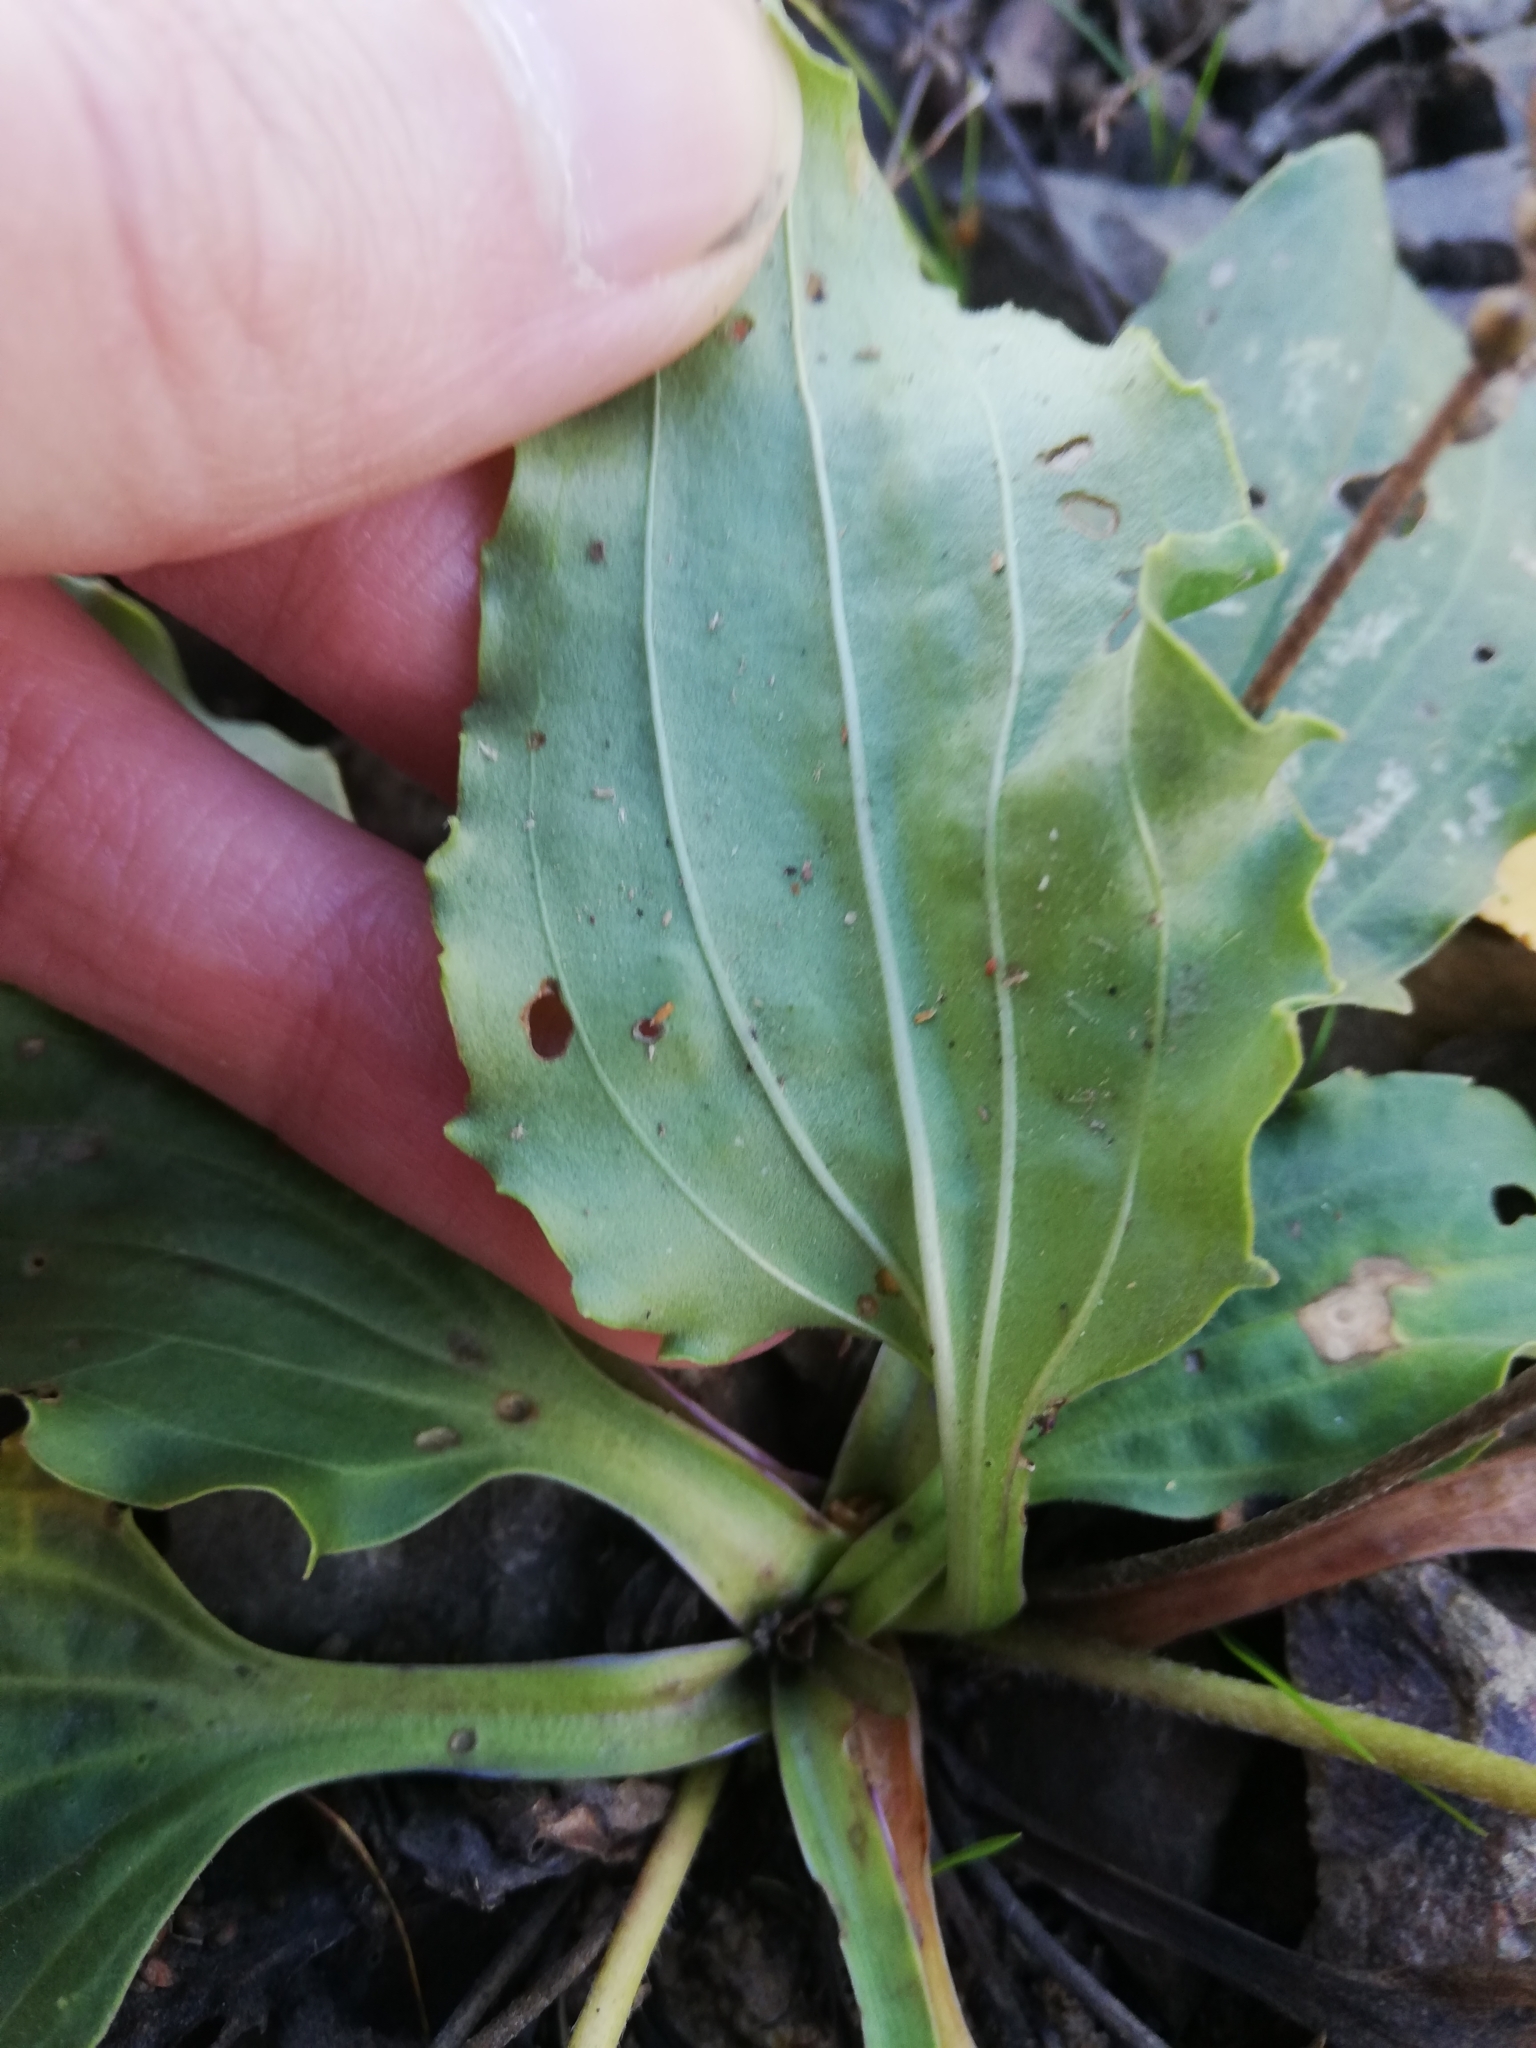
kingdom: Plantae
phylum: Tracheophyta
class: Magnoliopsida
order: Lamiales
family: Plantaginaceae
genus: Plantago
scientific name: Plantago major
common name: Common plantain
